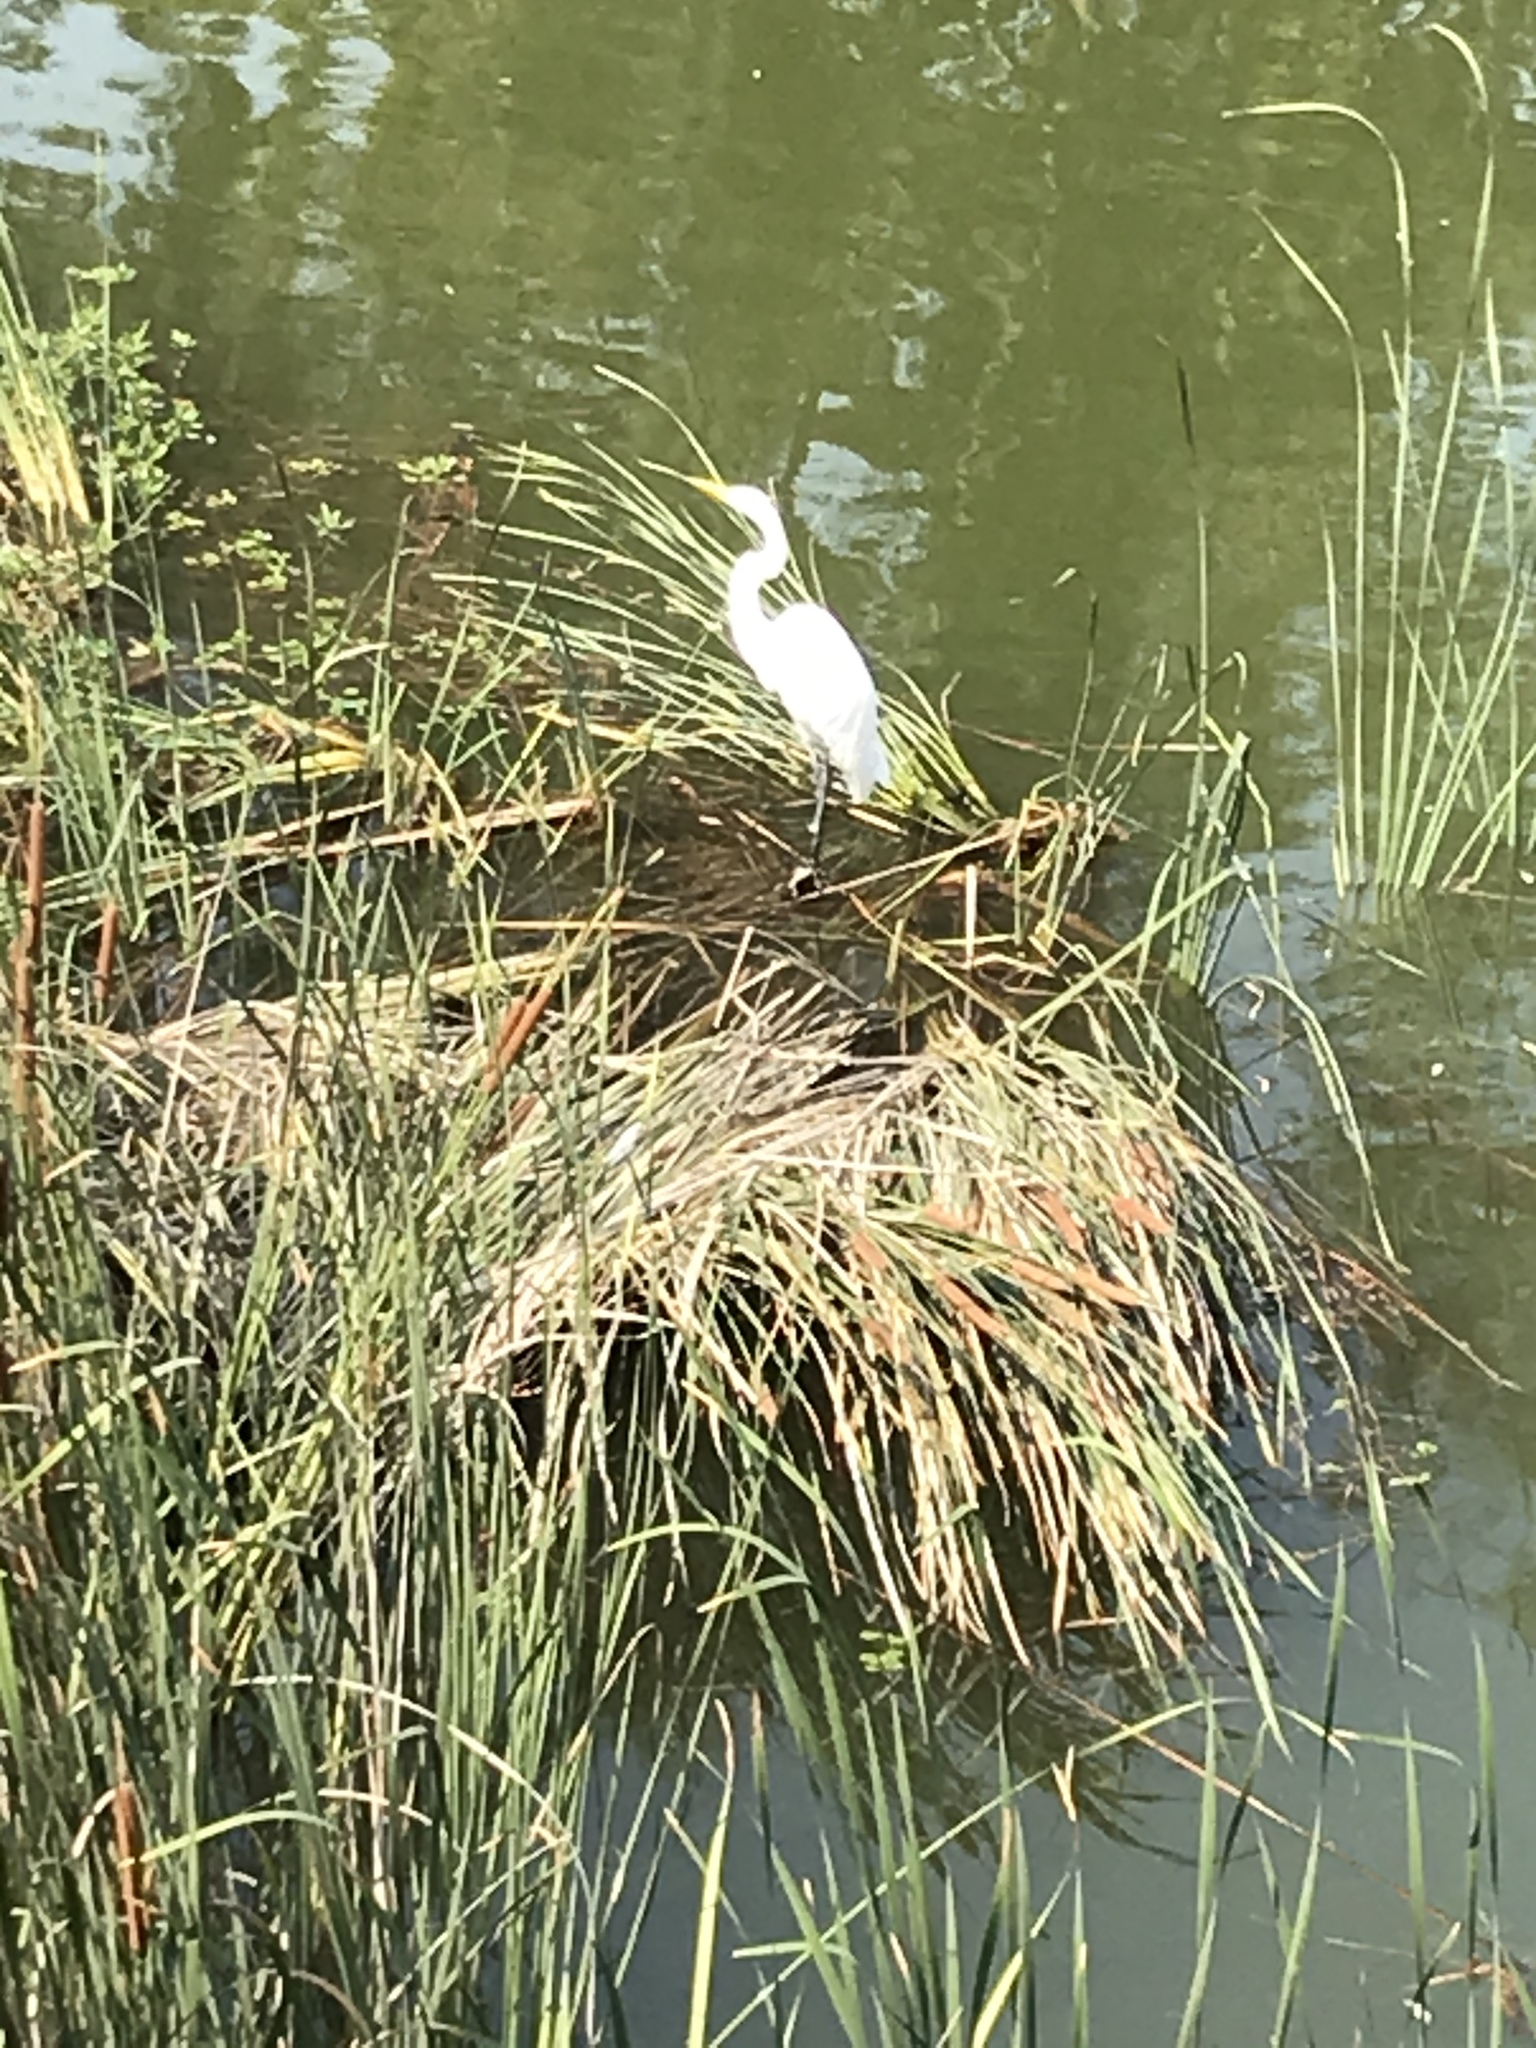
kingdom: Animalia
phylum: Chordata
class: Aves
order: Pelecaniformes
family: Ardeidae
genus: Ardea
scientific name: Ardea alba
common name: Great egret
